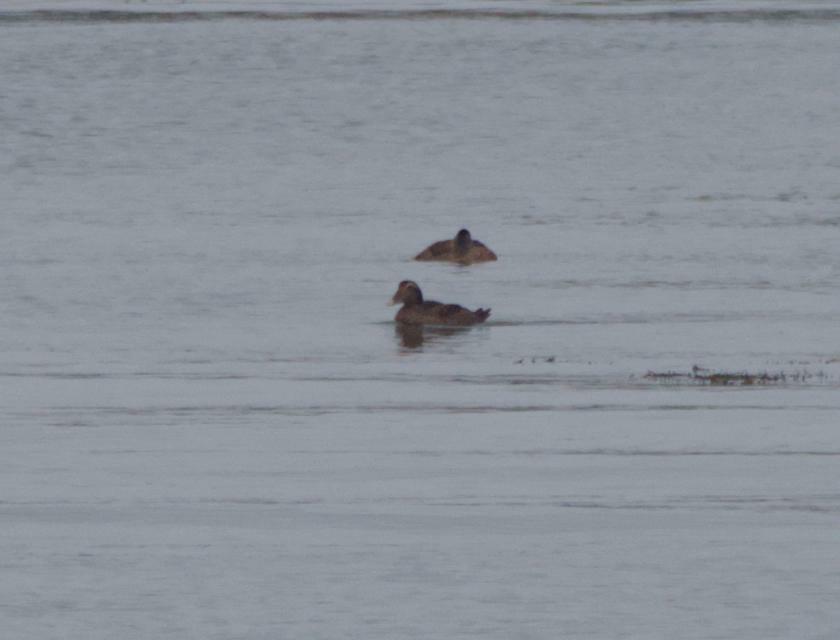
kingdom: Animalia
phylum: Chordata
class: Aves
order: Anseriformes
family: Anatidae
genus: Somateria
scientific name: Somateria mollissima
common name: Common eider
